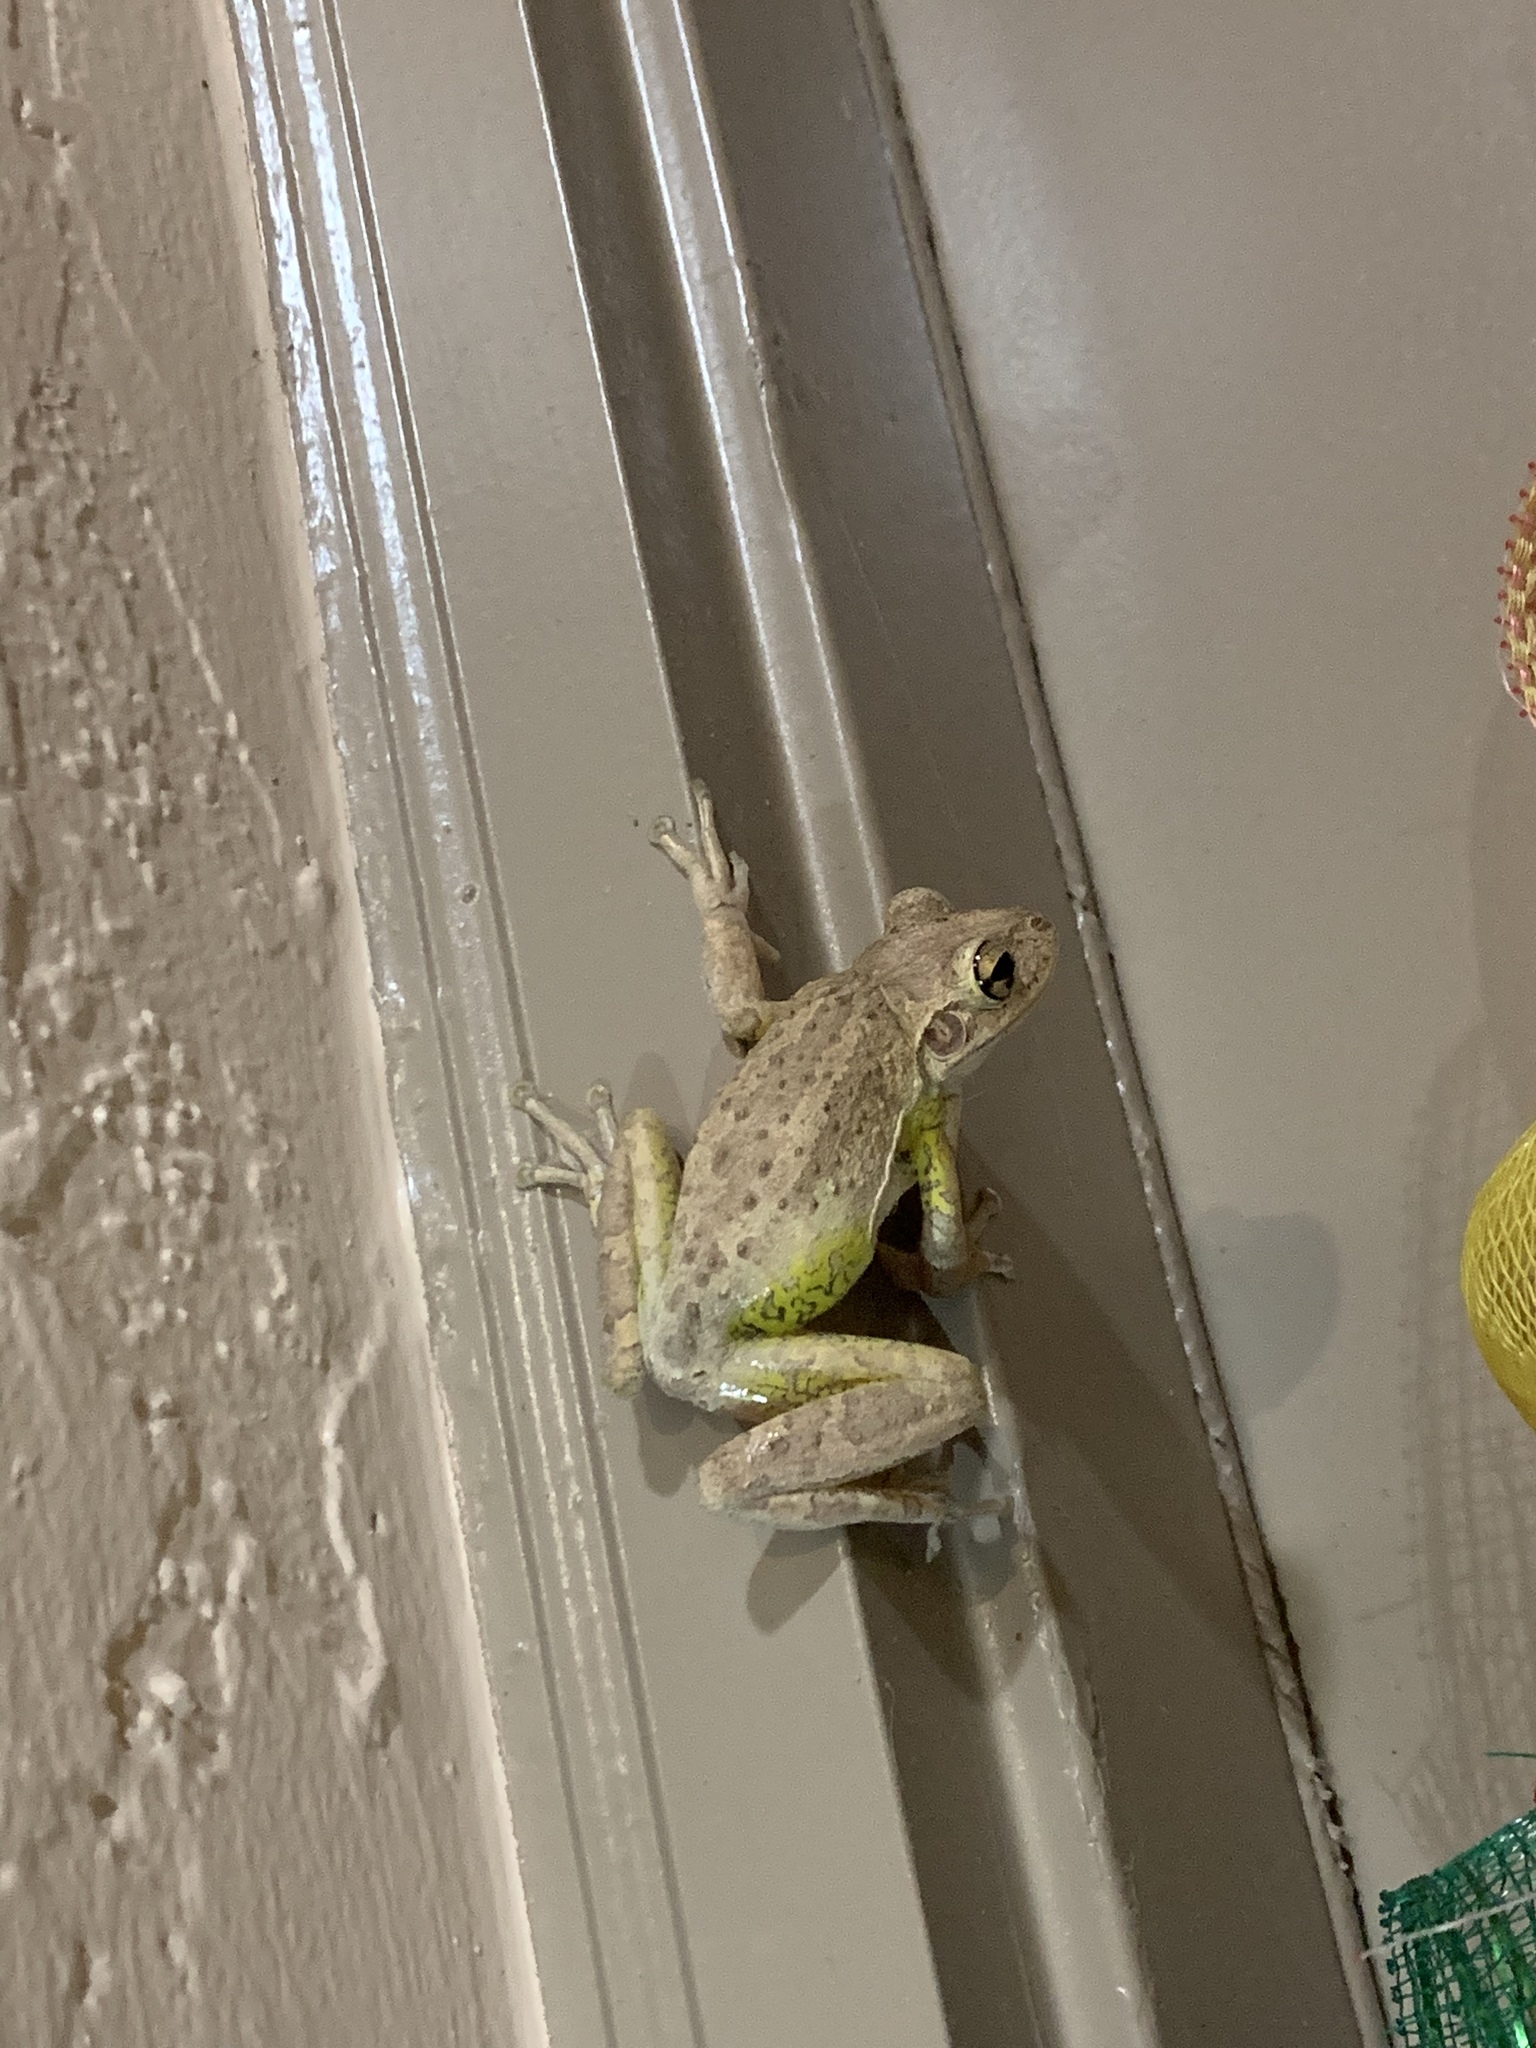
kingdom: Animalia
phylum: Chordata
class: Amphibia
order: Anura
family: Hylidae
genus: Osteopilus
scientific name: Osteopilus septentrionalis
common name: Cuban treefrog
